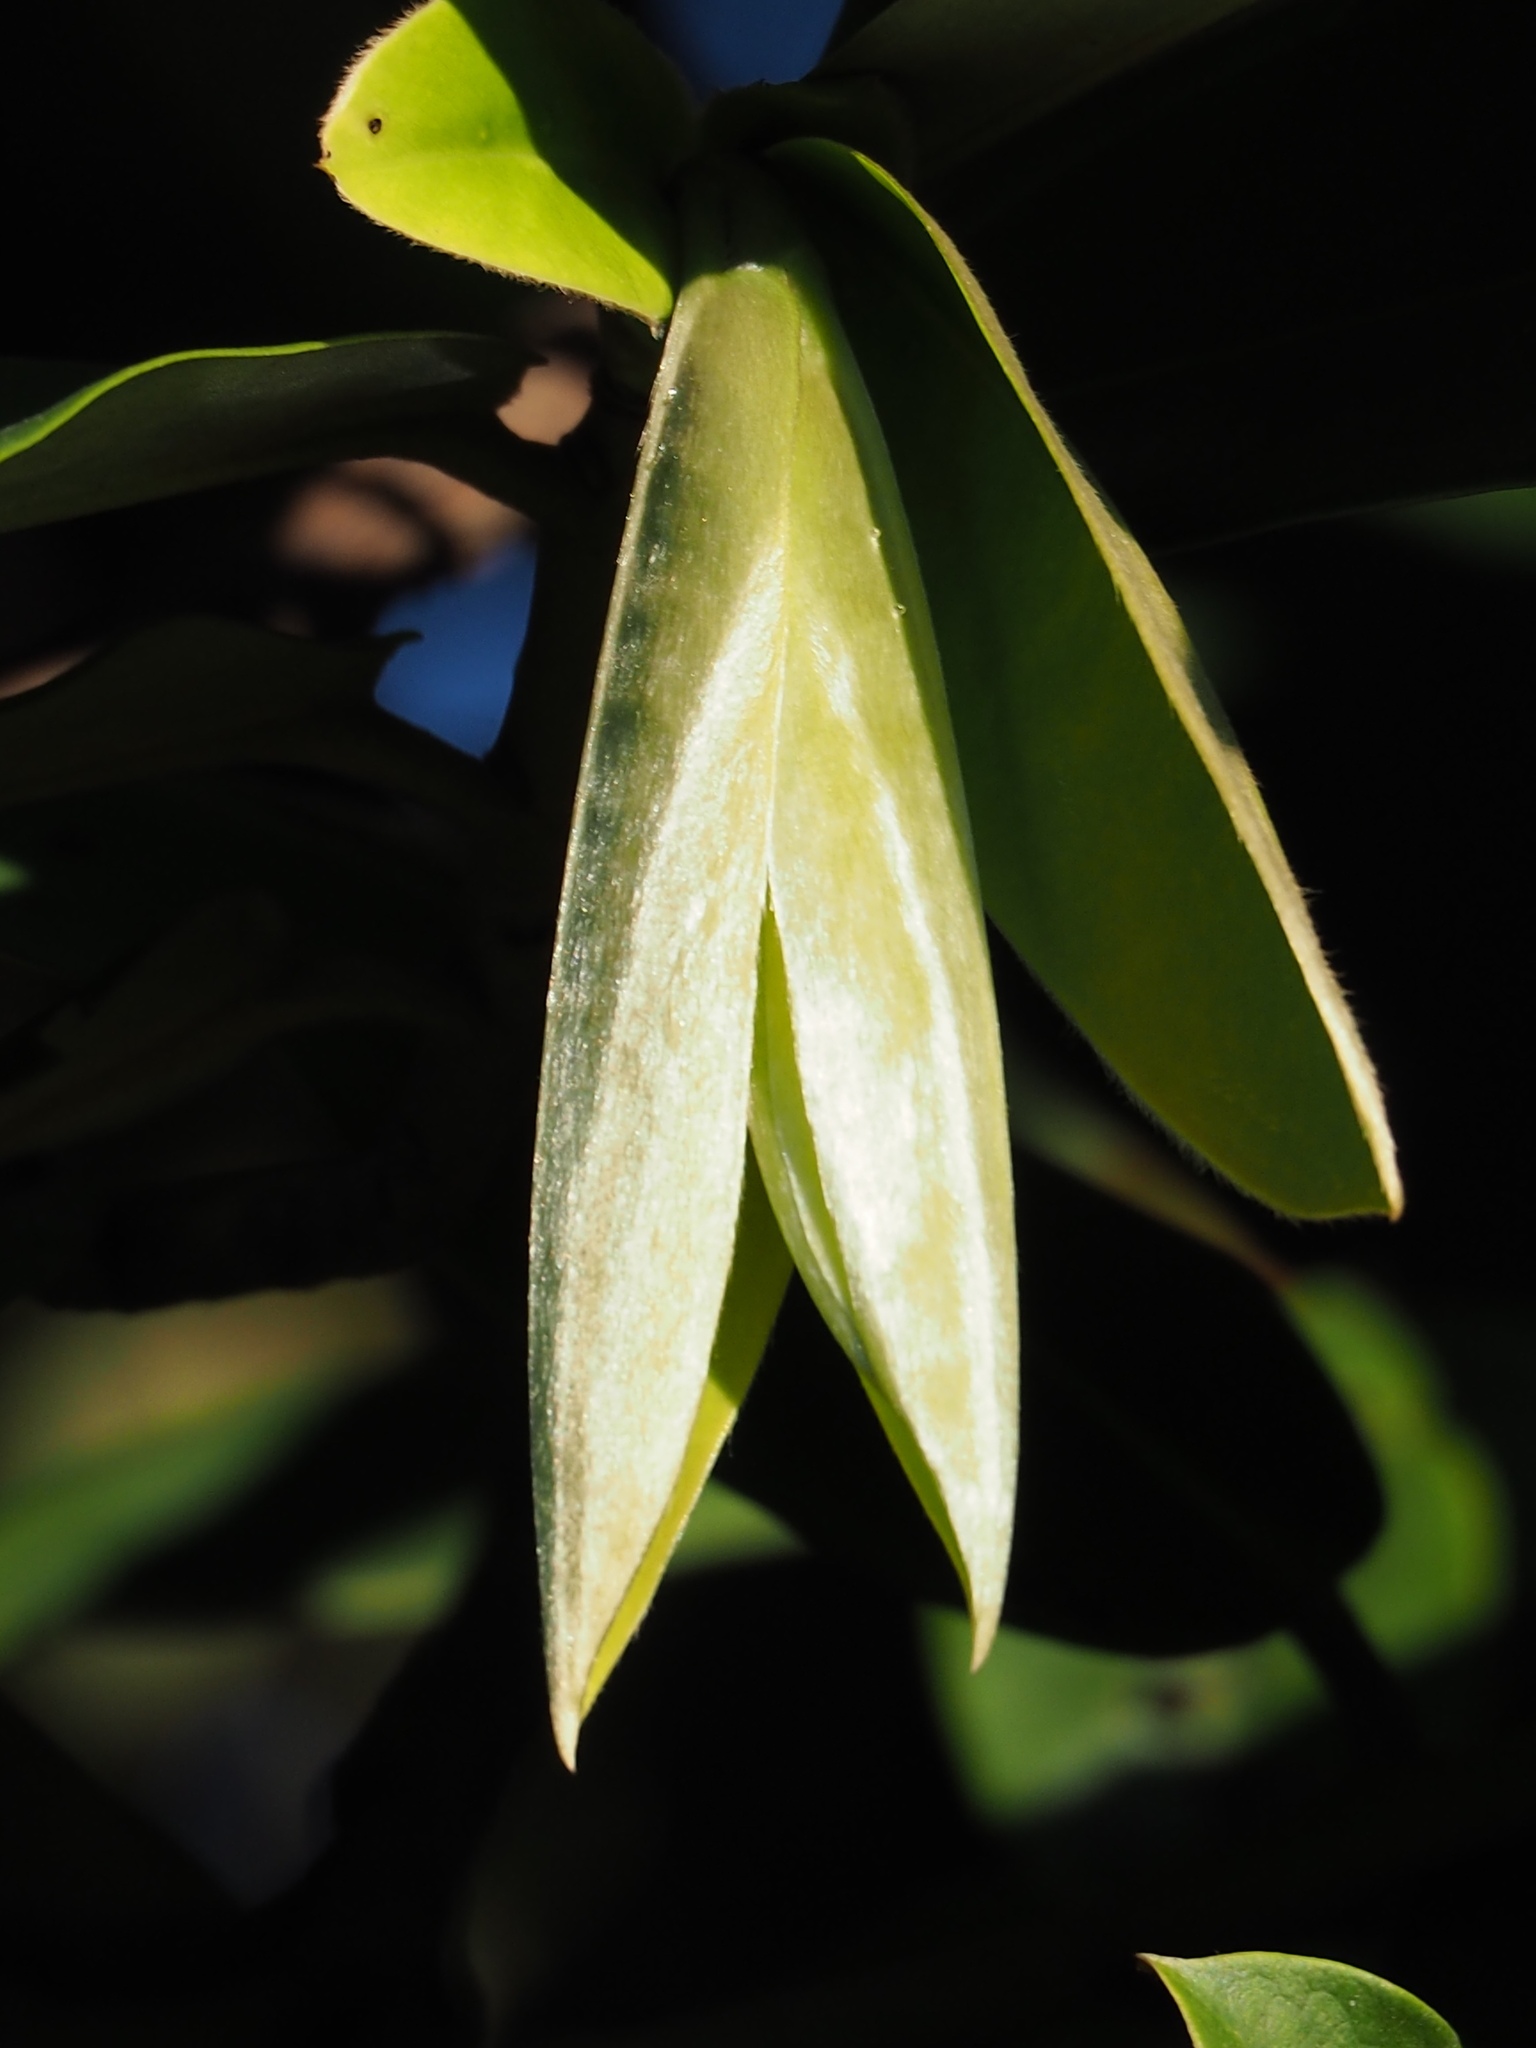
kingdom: Plantae
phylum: Tracheophyta
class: Magnoliopsida
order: Ericales
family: Ebenaceae
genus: Diospyros
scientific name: Diospyros blancoi
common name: Mabola-tree
